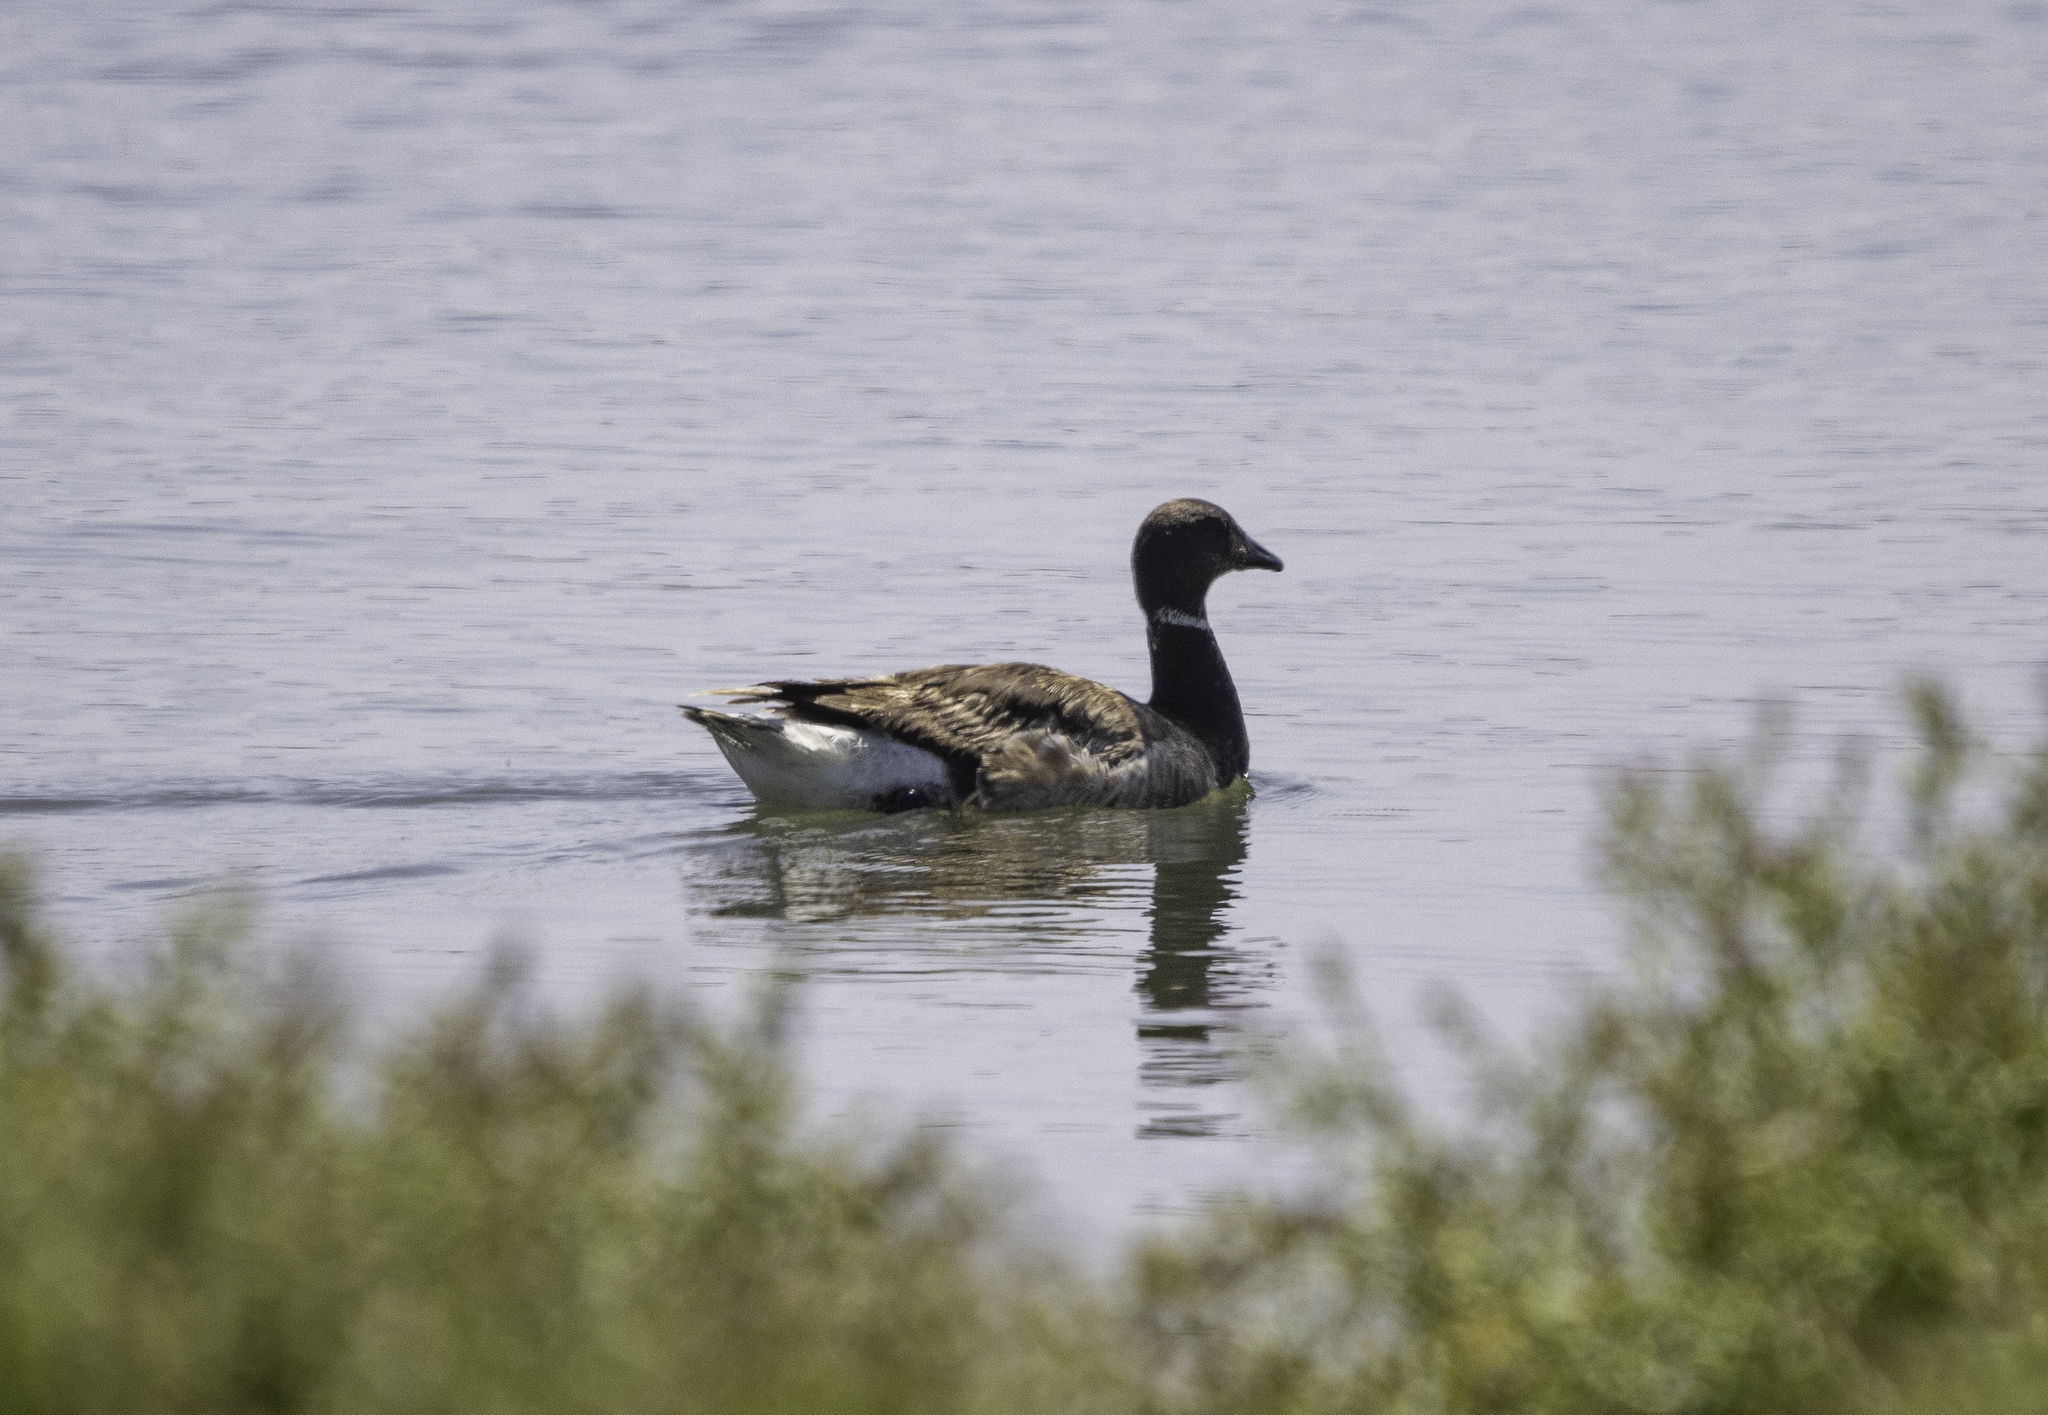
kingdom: Animalia
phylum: Chordata
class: Aves
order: Anseriformes
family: Anatidae
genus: Branta
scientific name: Branta bernicla
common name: Brant goose
